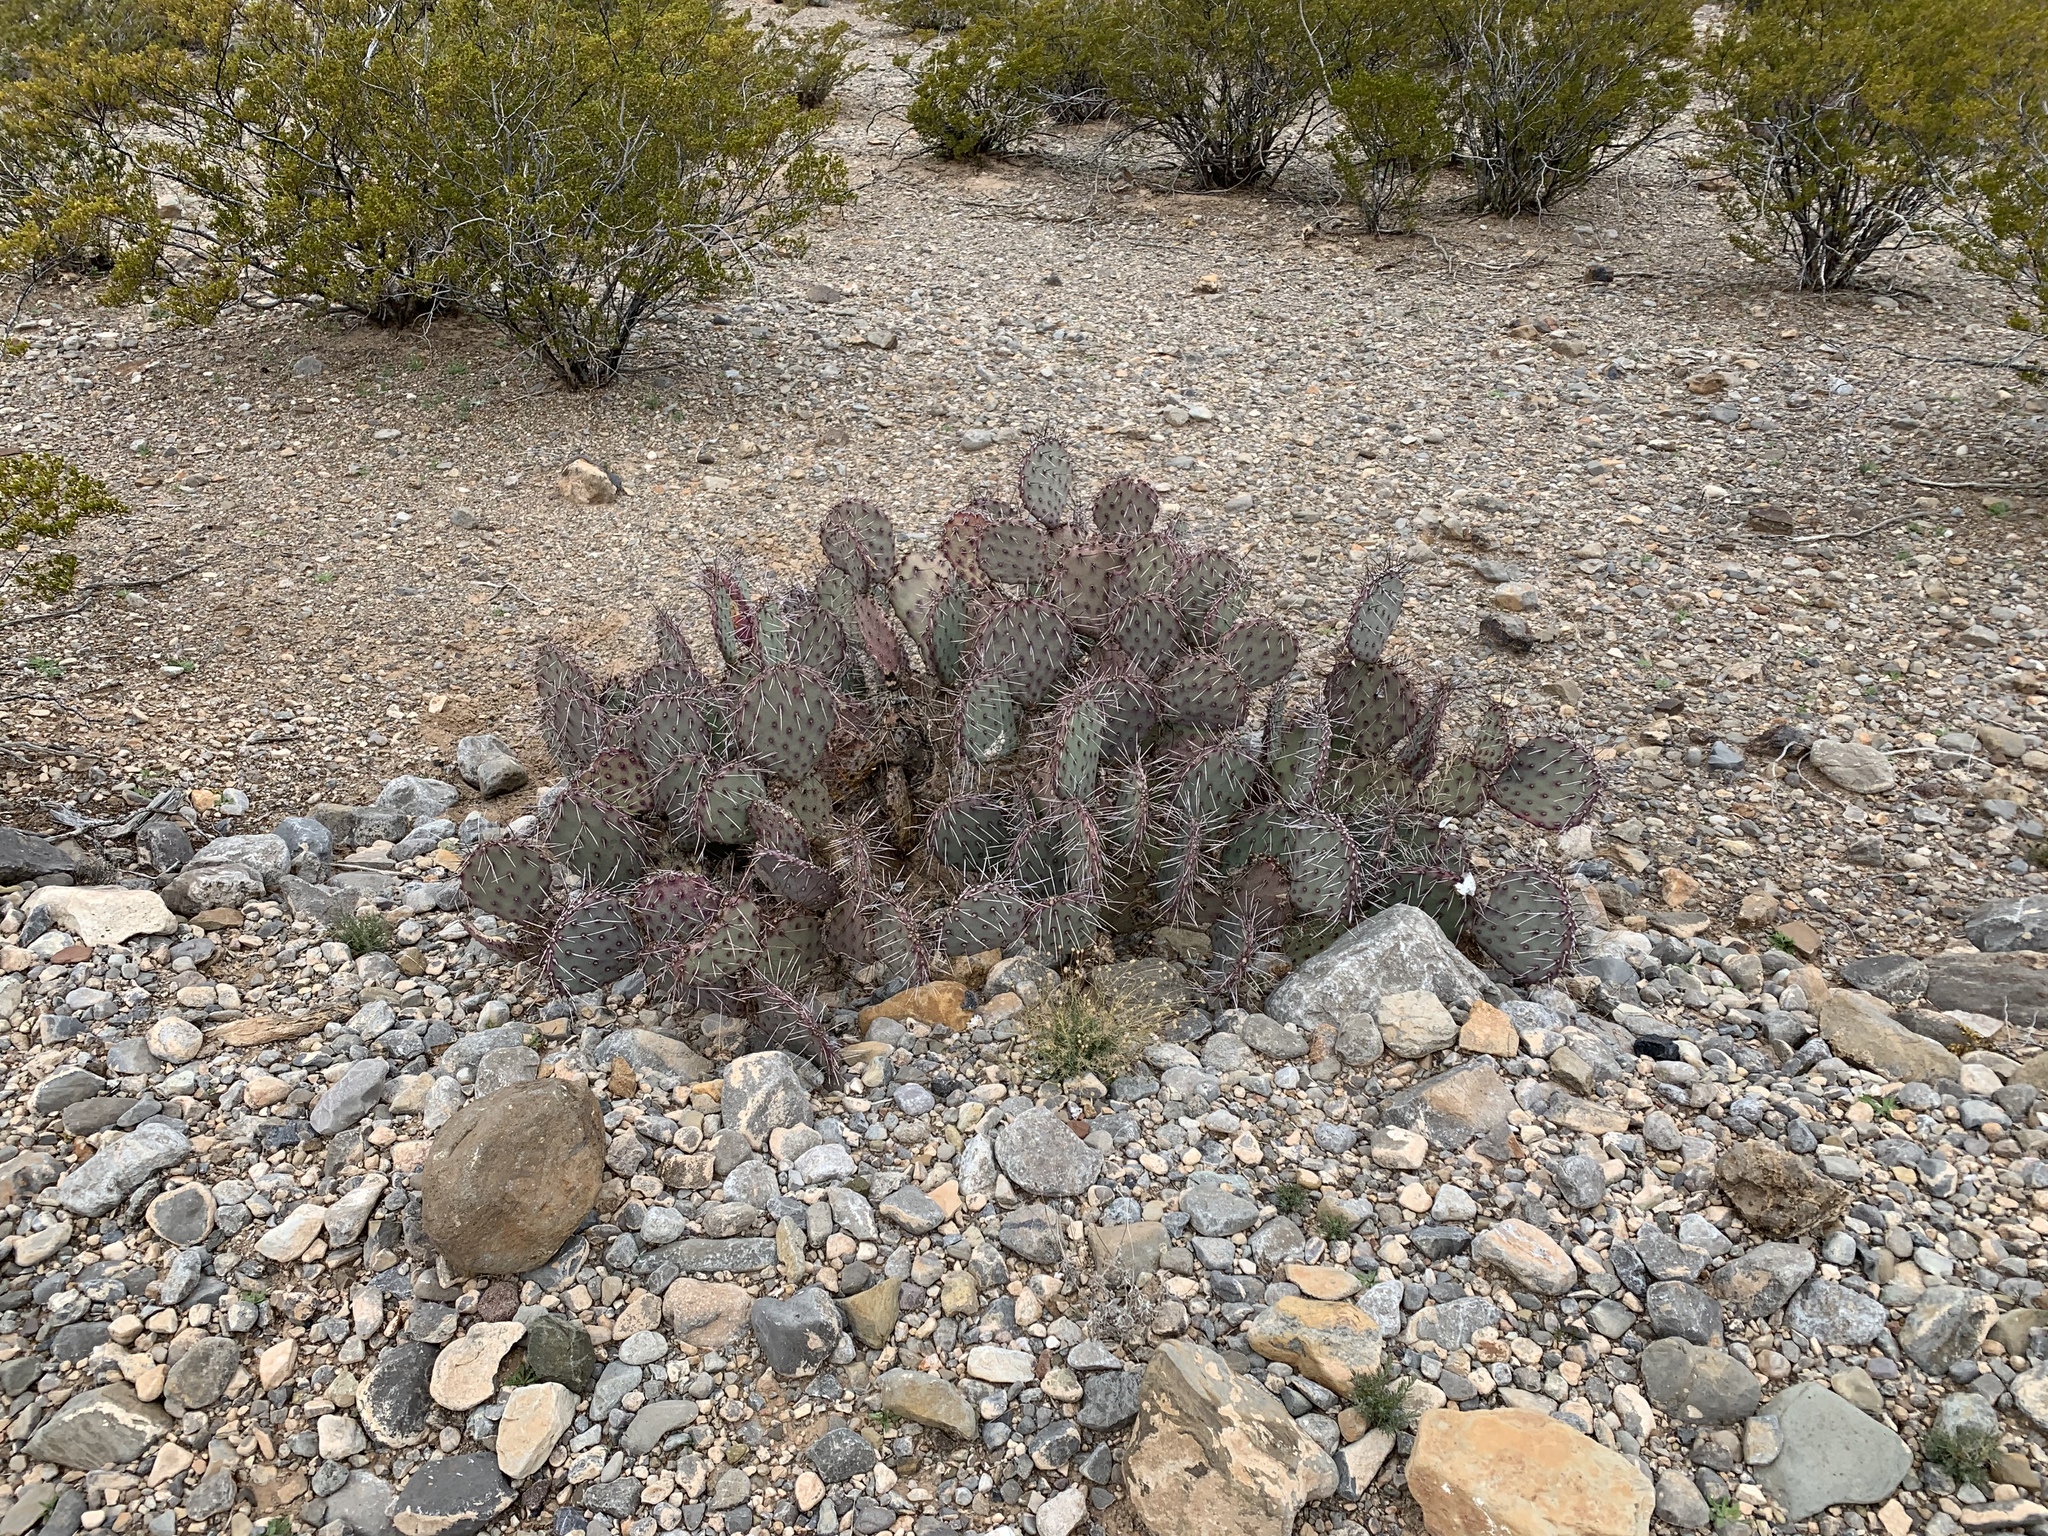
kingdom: Plantae
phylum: Tracheophyta
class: Magnoliopsida
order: Caryophyllales
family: Cactaceae
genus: Opuntia
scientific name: Opuntia macrocentra
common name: Purple prickly-pear
